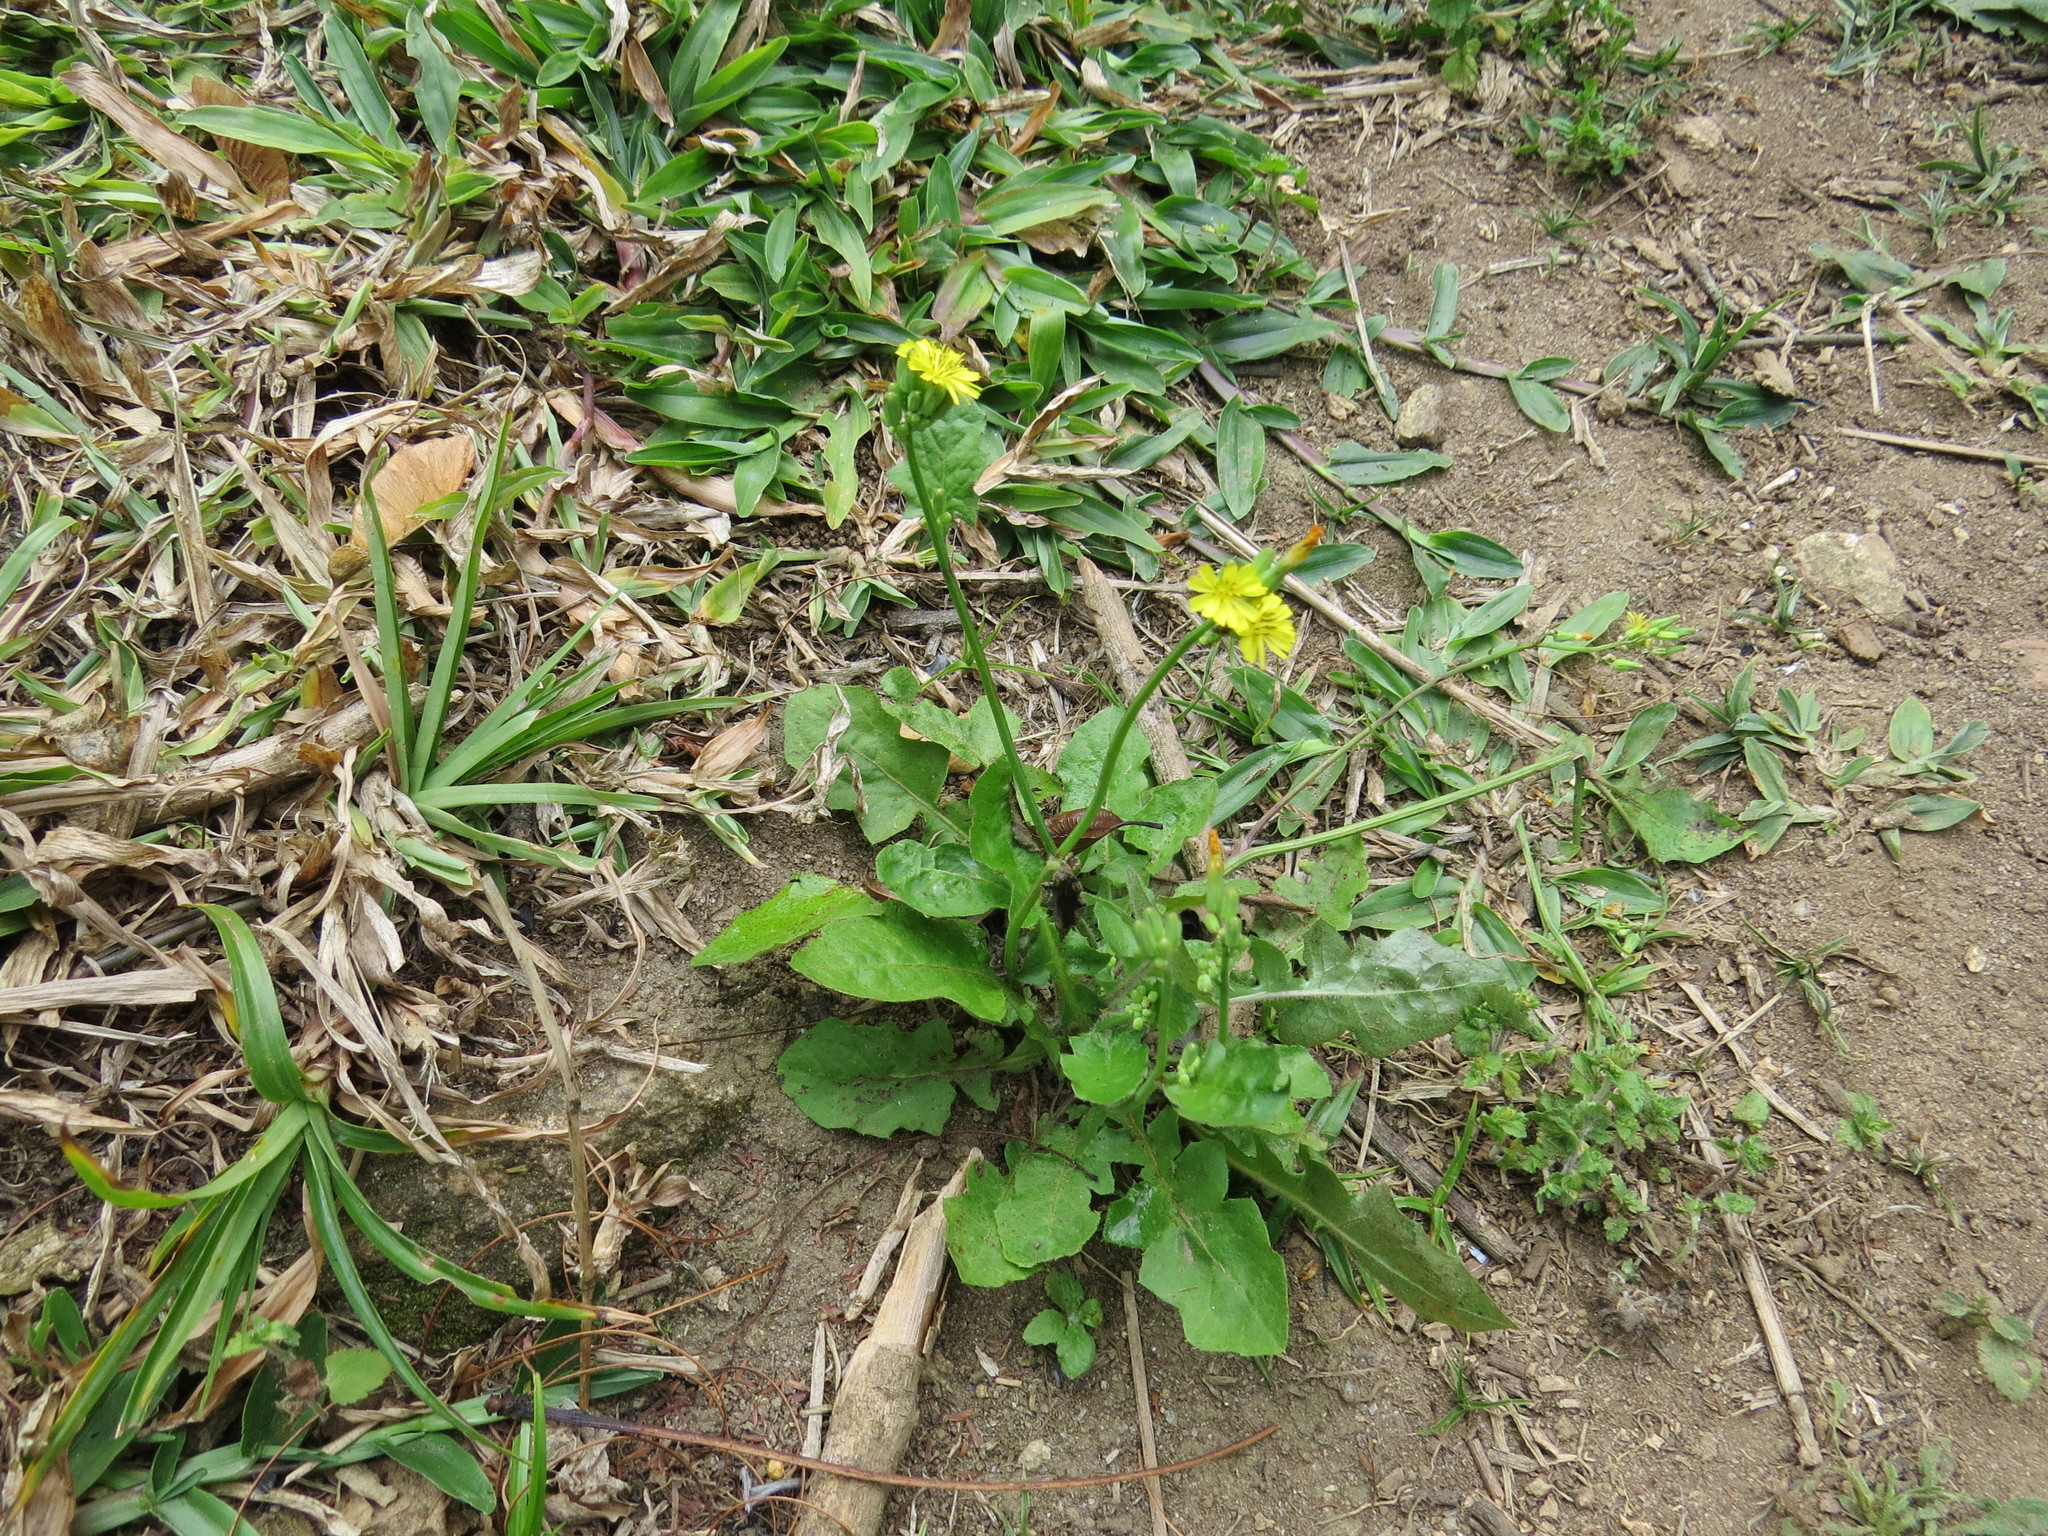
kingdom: Plantae
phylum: Tracheophyta
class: Magnoliopsida
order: Asterales
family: Asteraceae
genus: Youngia
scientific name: Youngia japonica
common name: Oriental false hawksbeard
